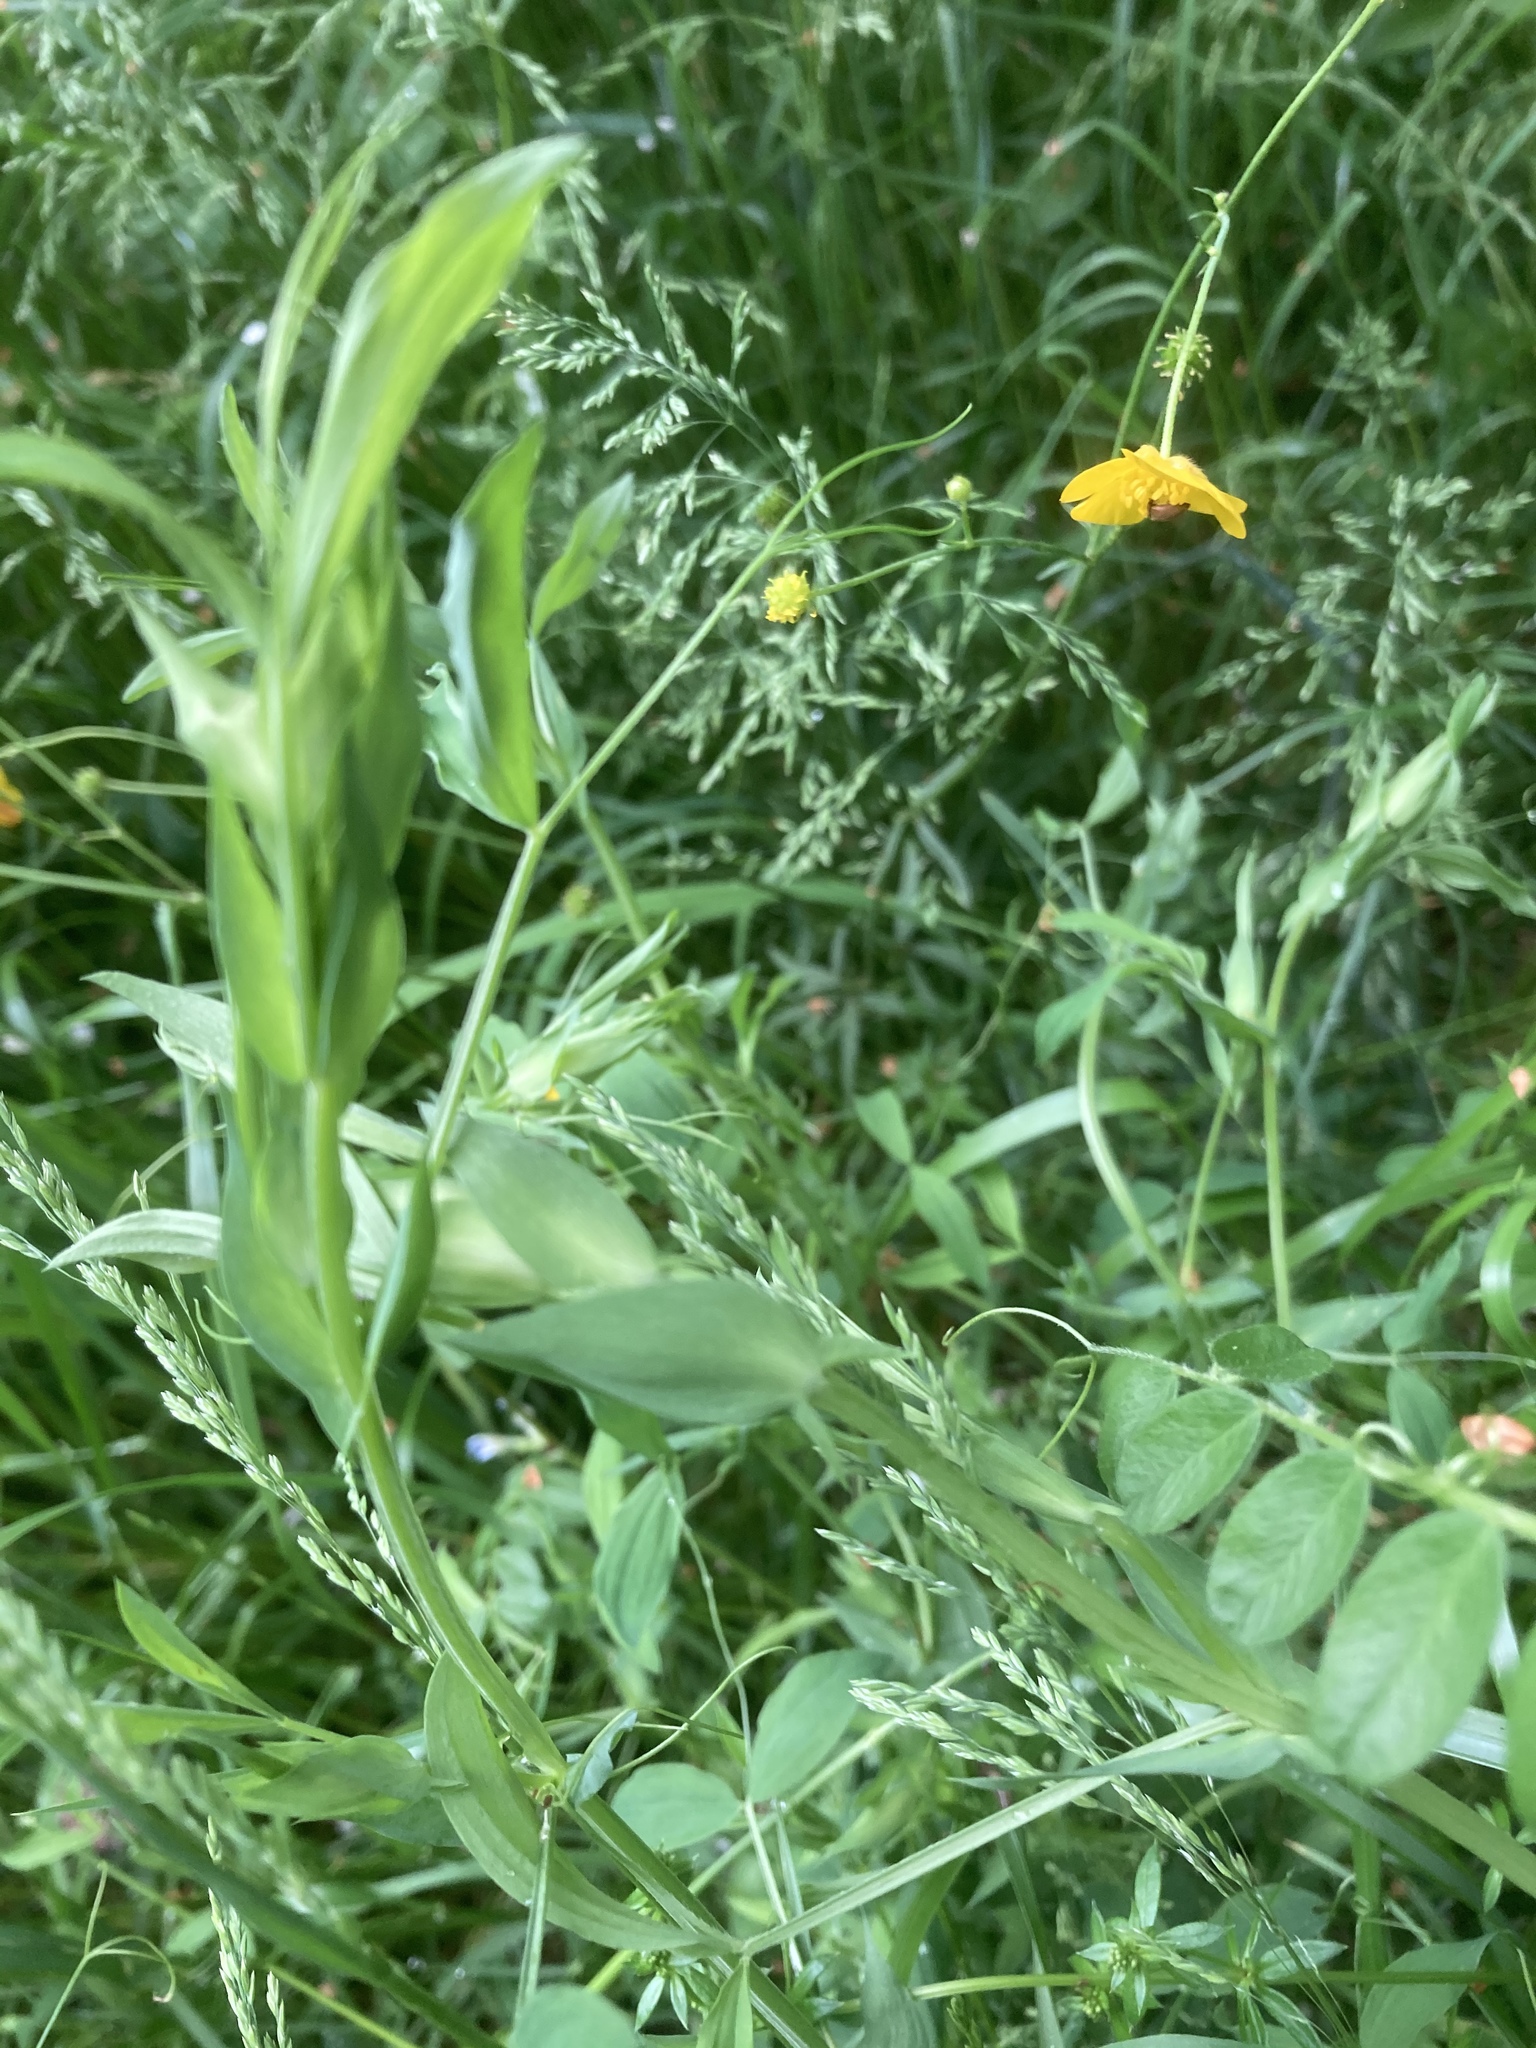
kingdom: Plantae
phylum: Tracheophyta
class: Magnoliopsida
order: Fabales
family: Fabaceae
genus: Lathyrus
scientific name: Lathyrus pratensis
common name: Meadow vetchling
